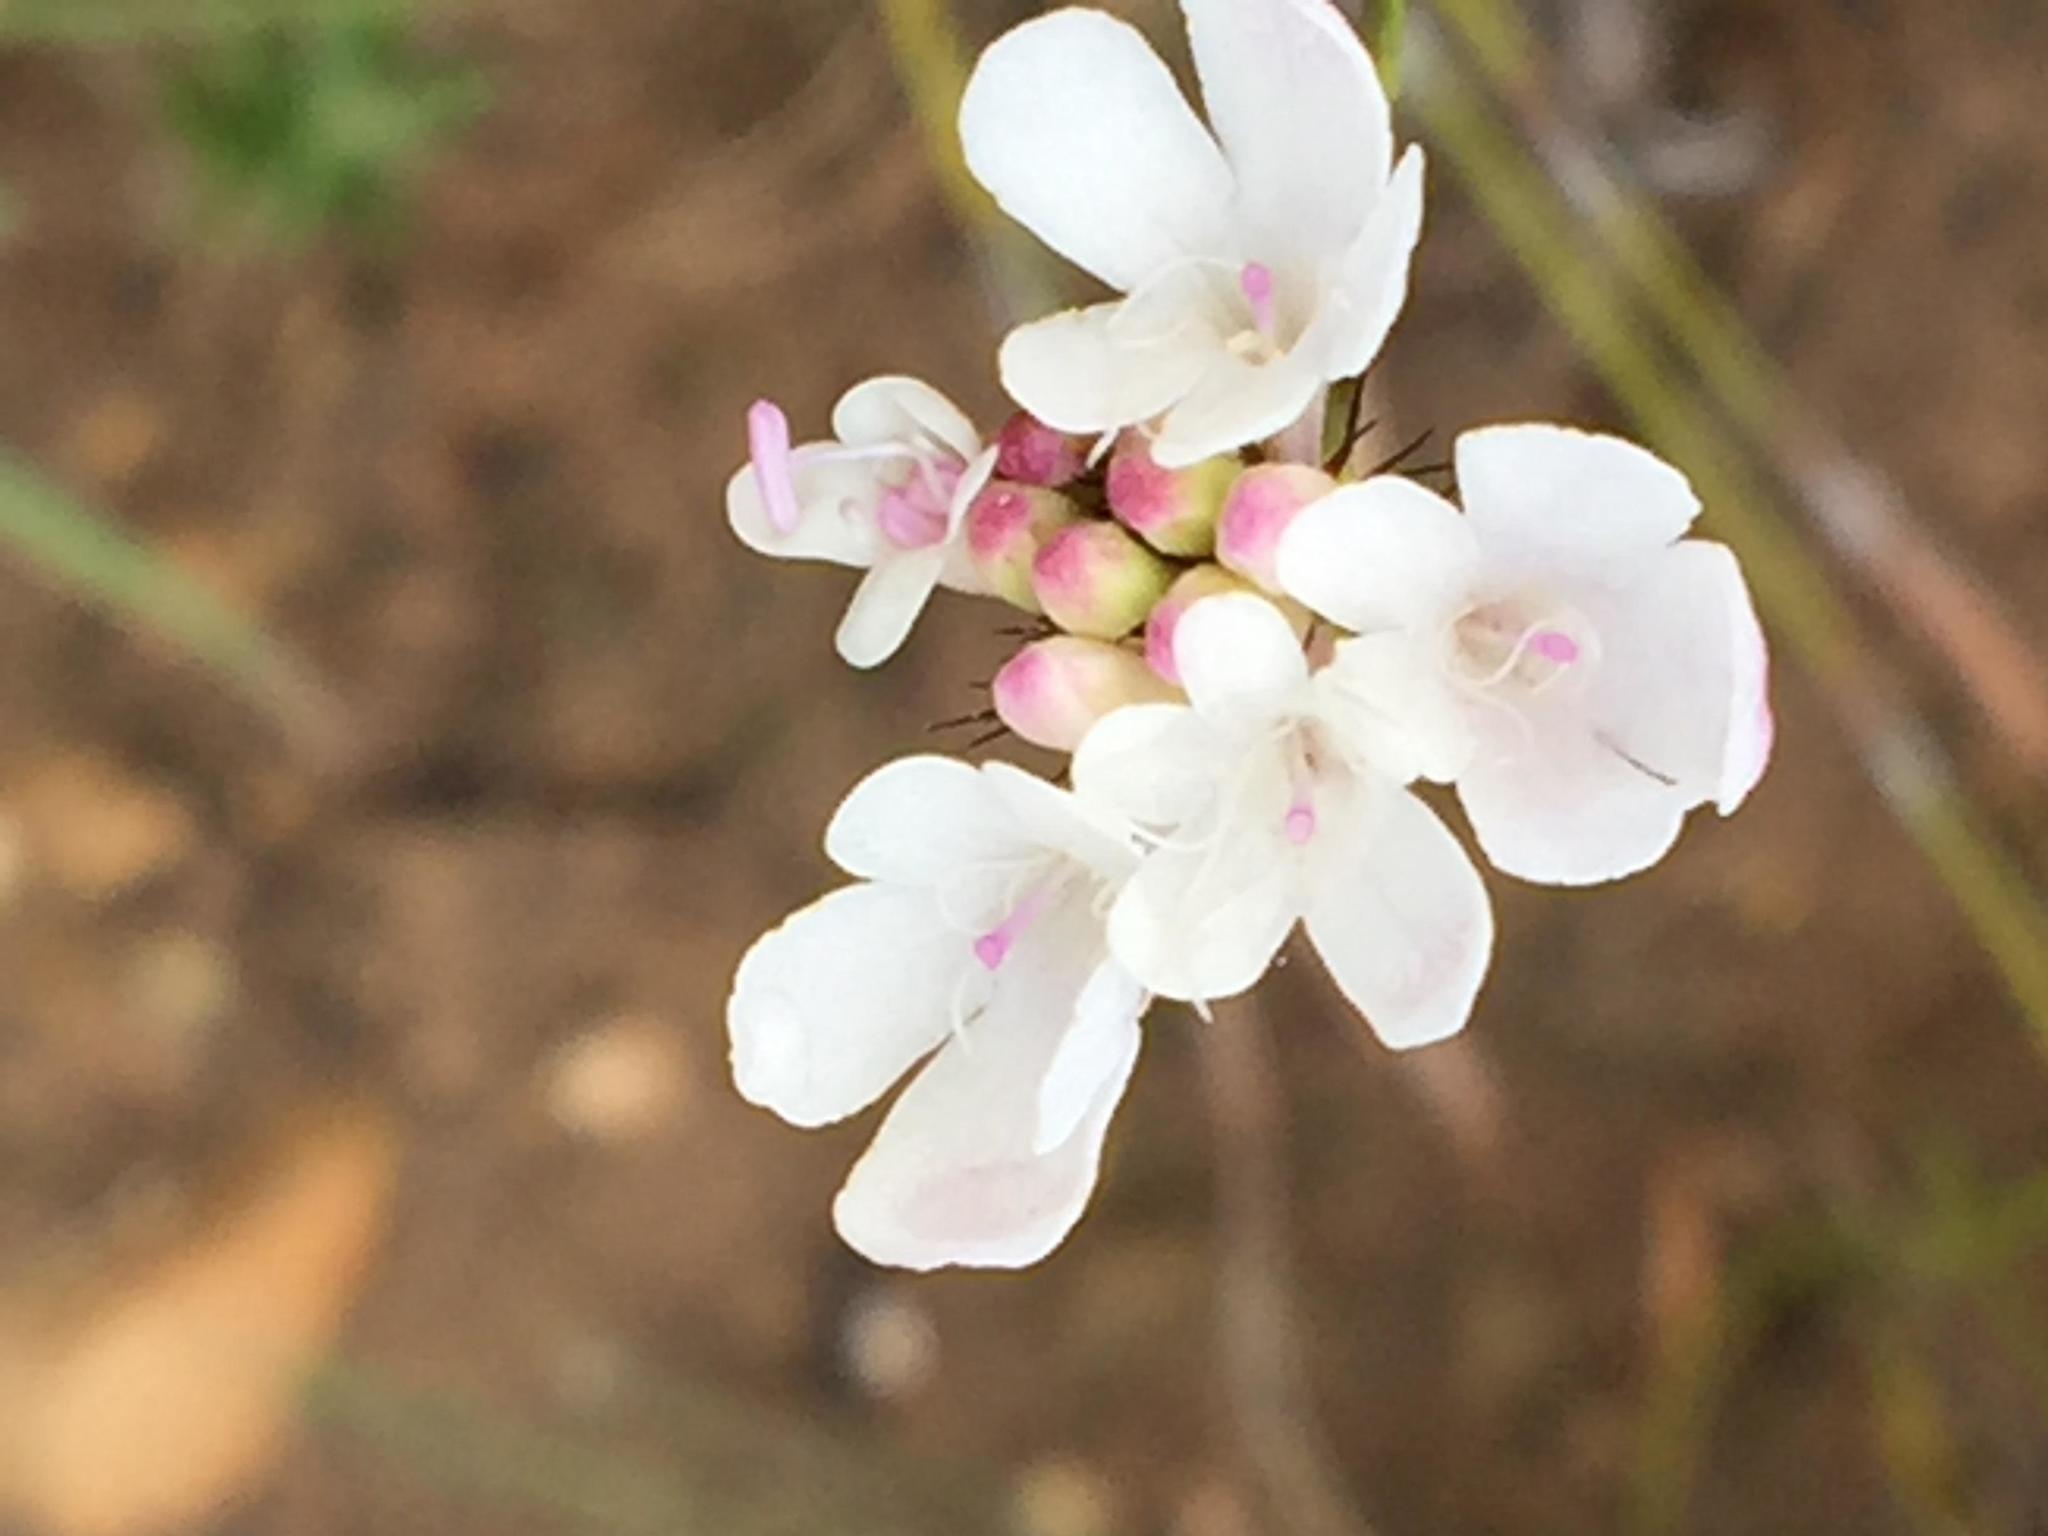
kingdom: Plantae
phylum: Tracheophyta
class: Magnoliopsida
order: Dipsacales
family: Caprifoliaceae
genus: Scabiosa
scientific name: Scabiosa columbaria
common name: Small scabious
